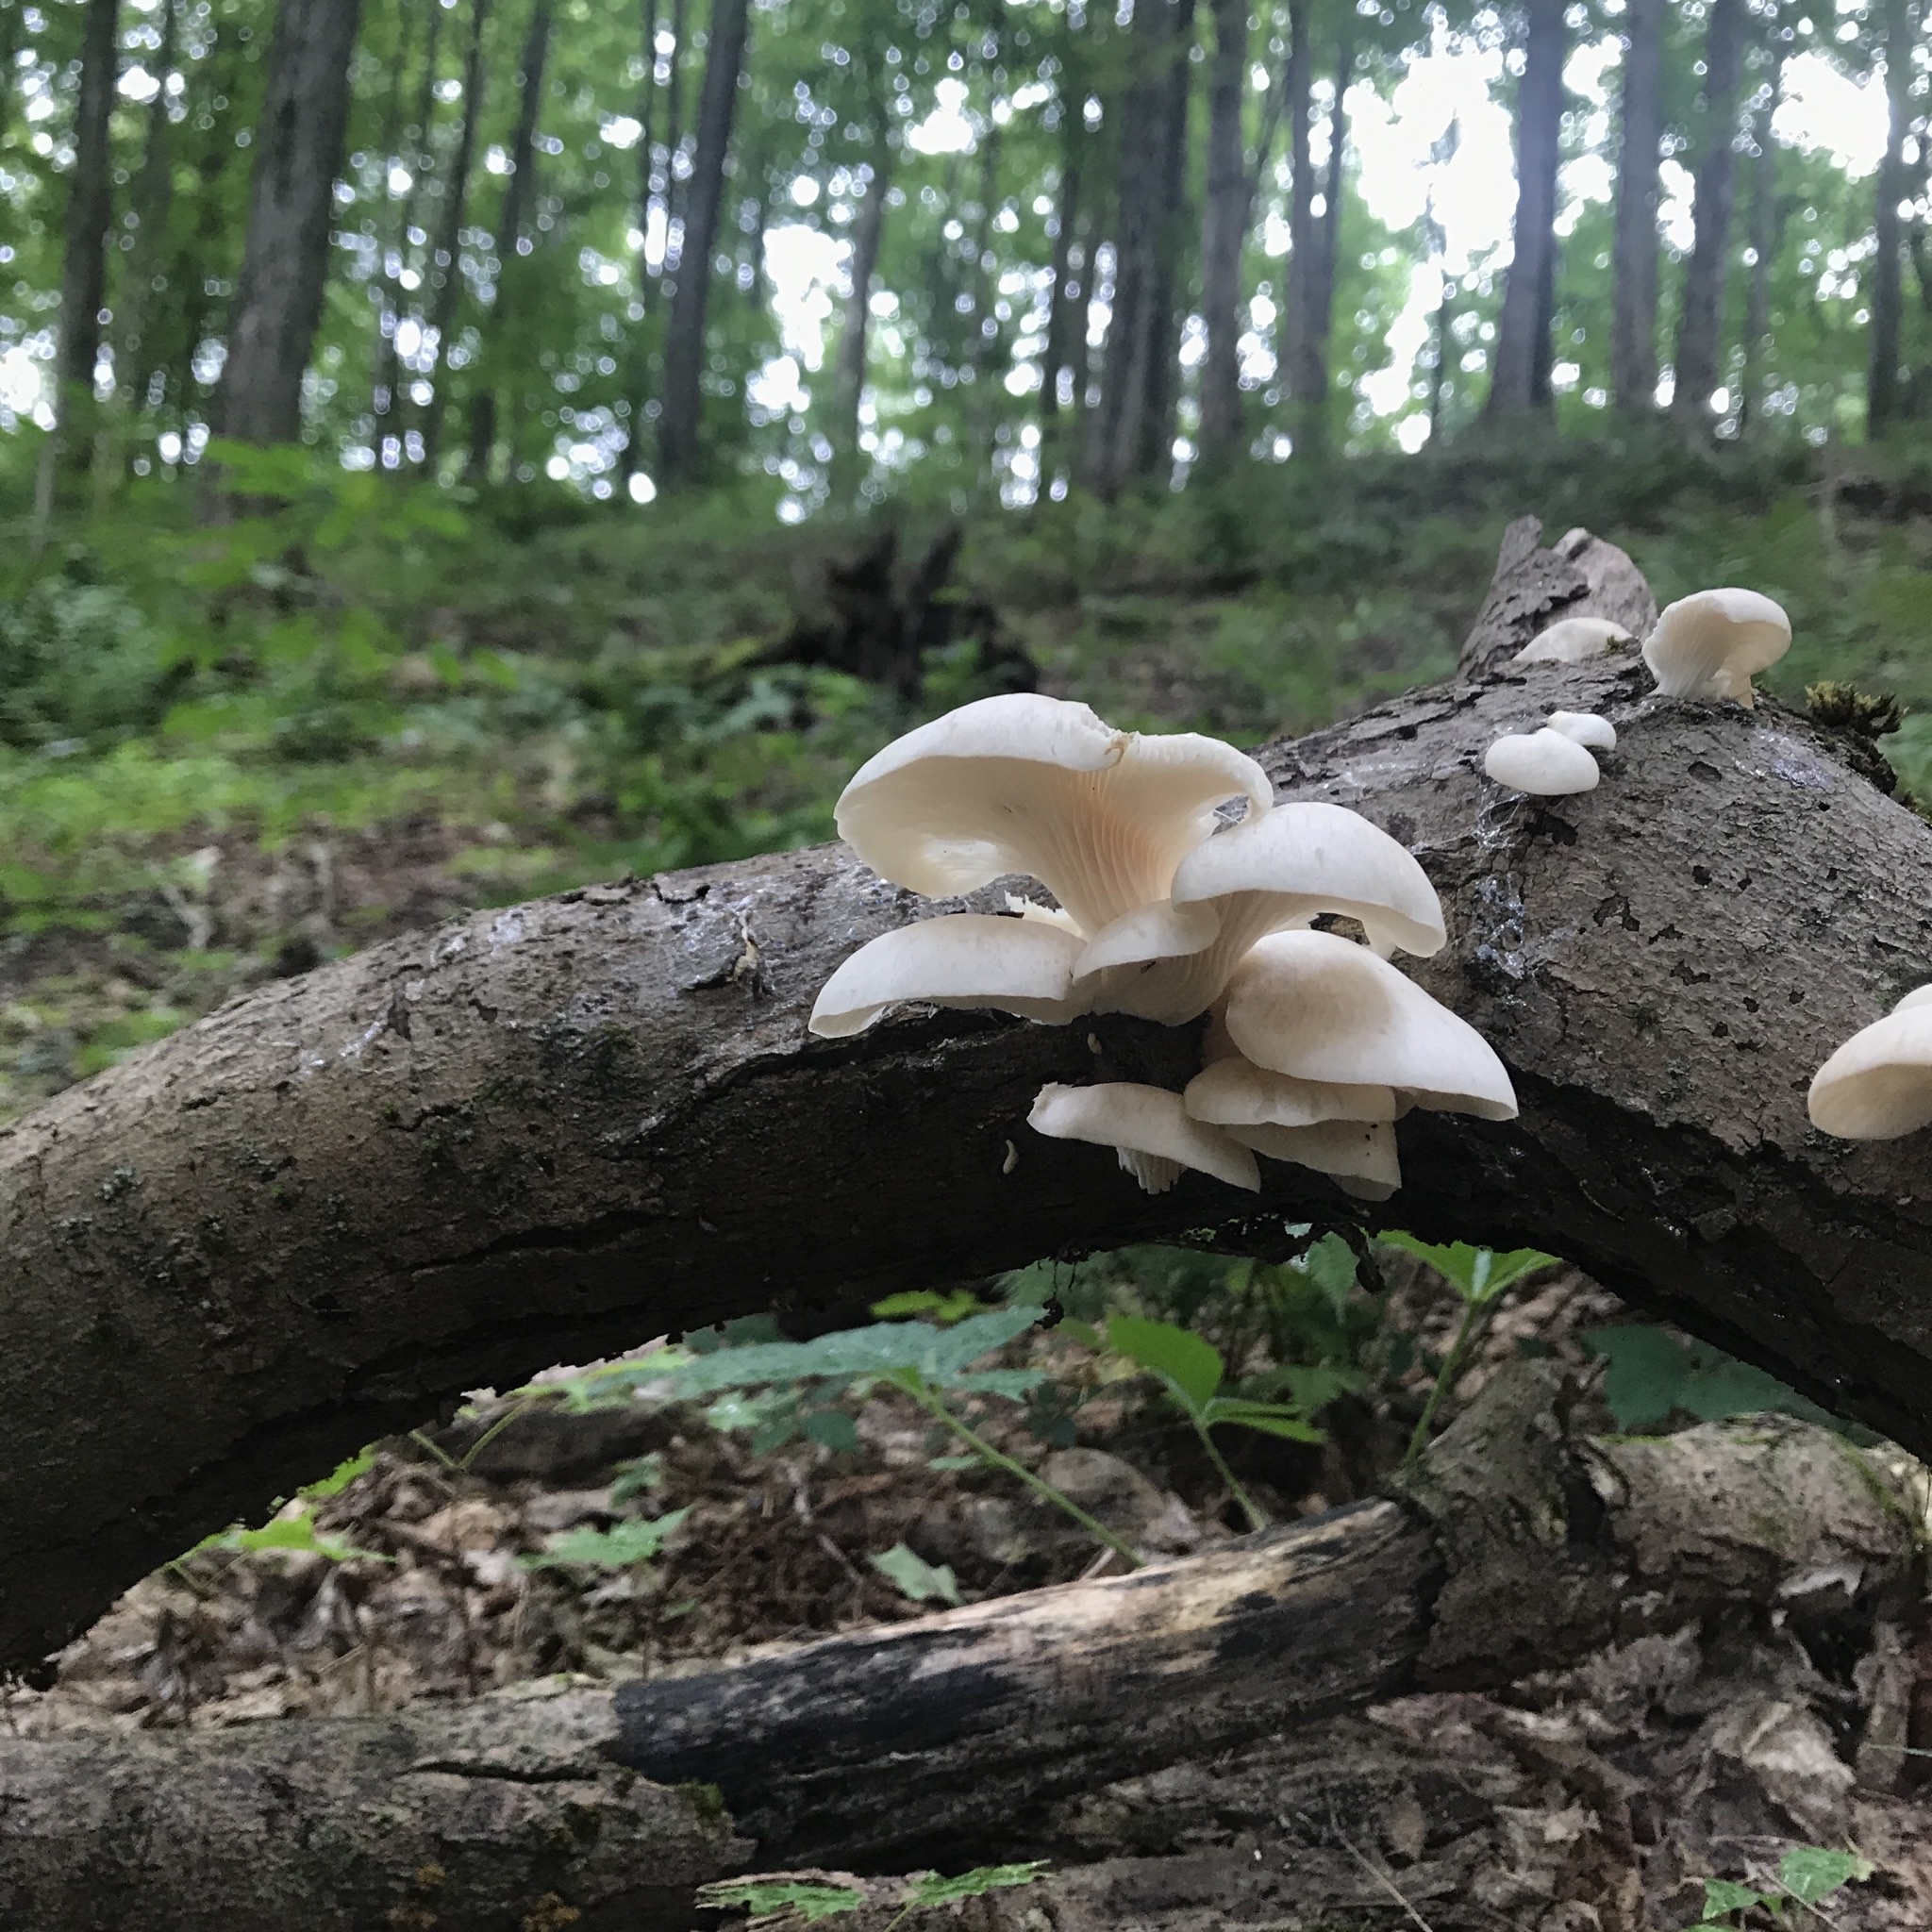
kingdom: Fungi
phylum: Basidiomycota
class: Agaricomycetes
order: Agaricales
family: Pleurotaceae
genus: Pleurotus
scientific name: Pleurotus pulmonarius
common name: Pale oyster
